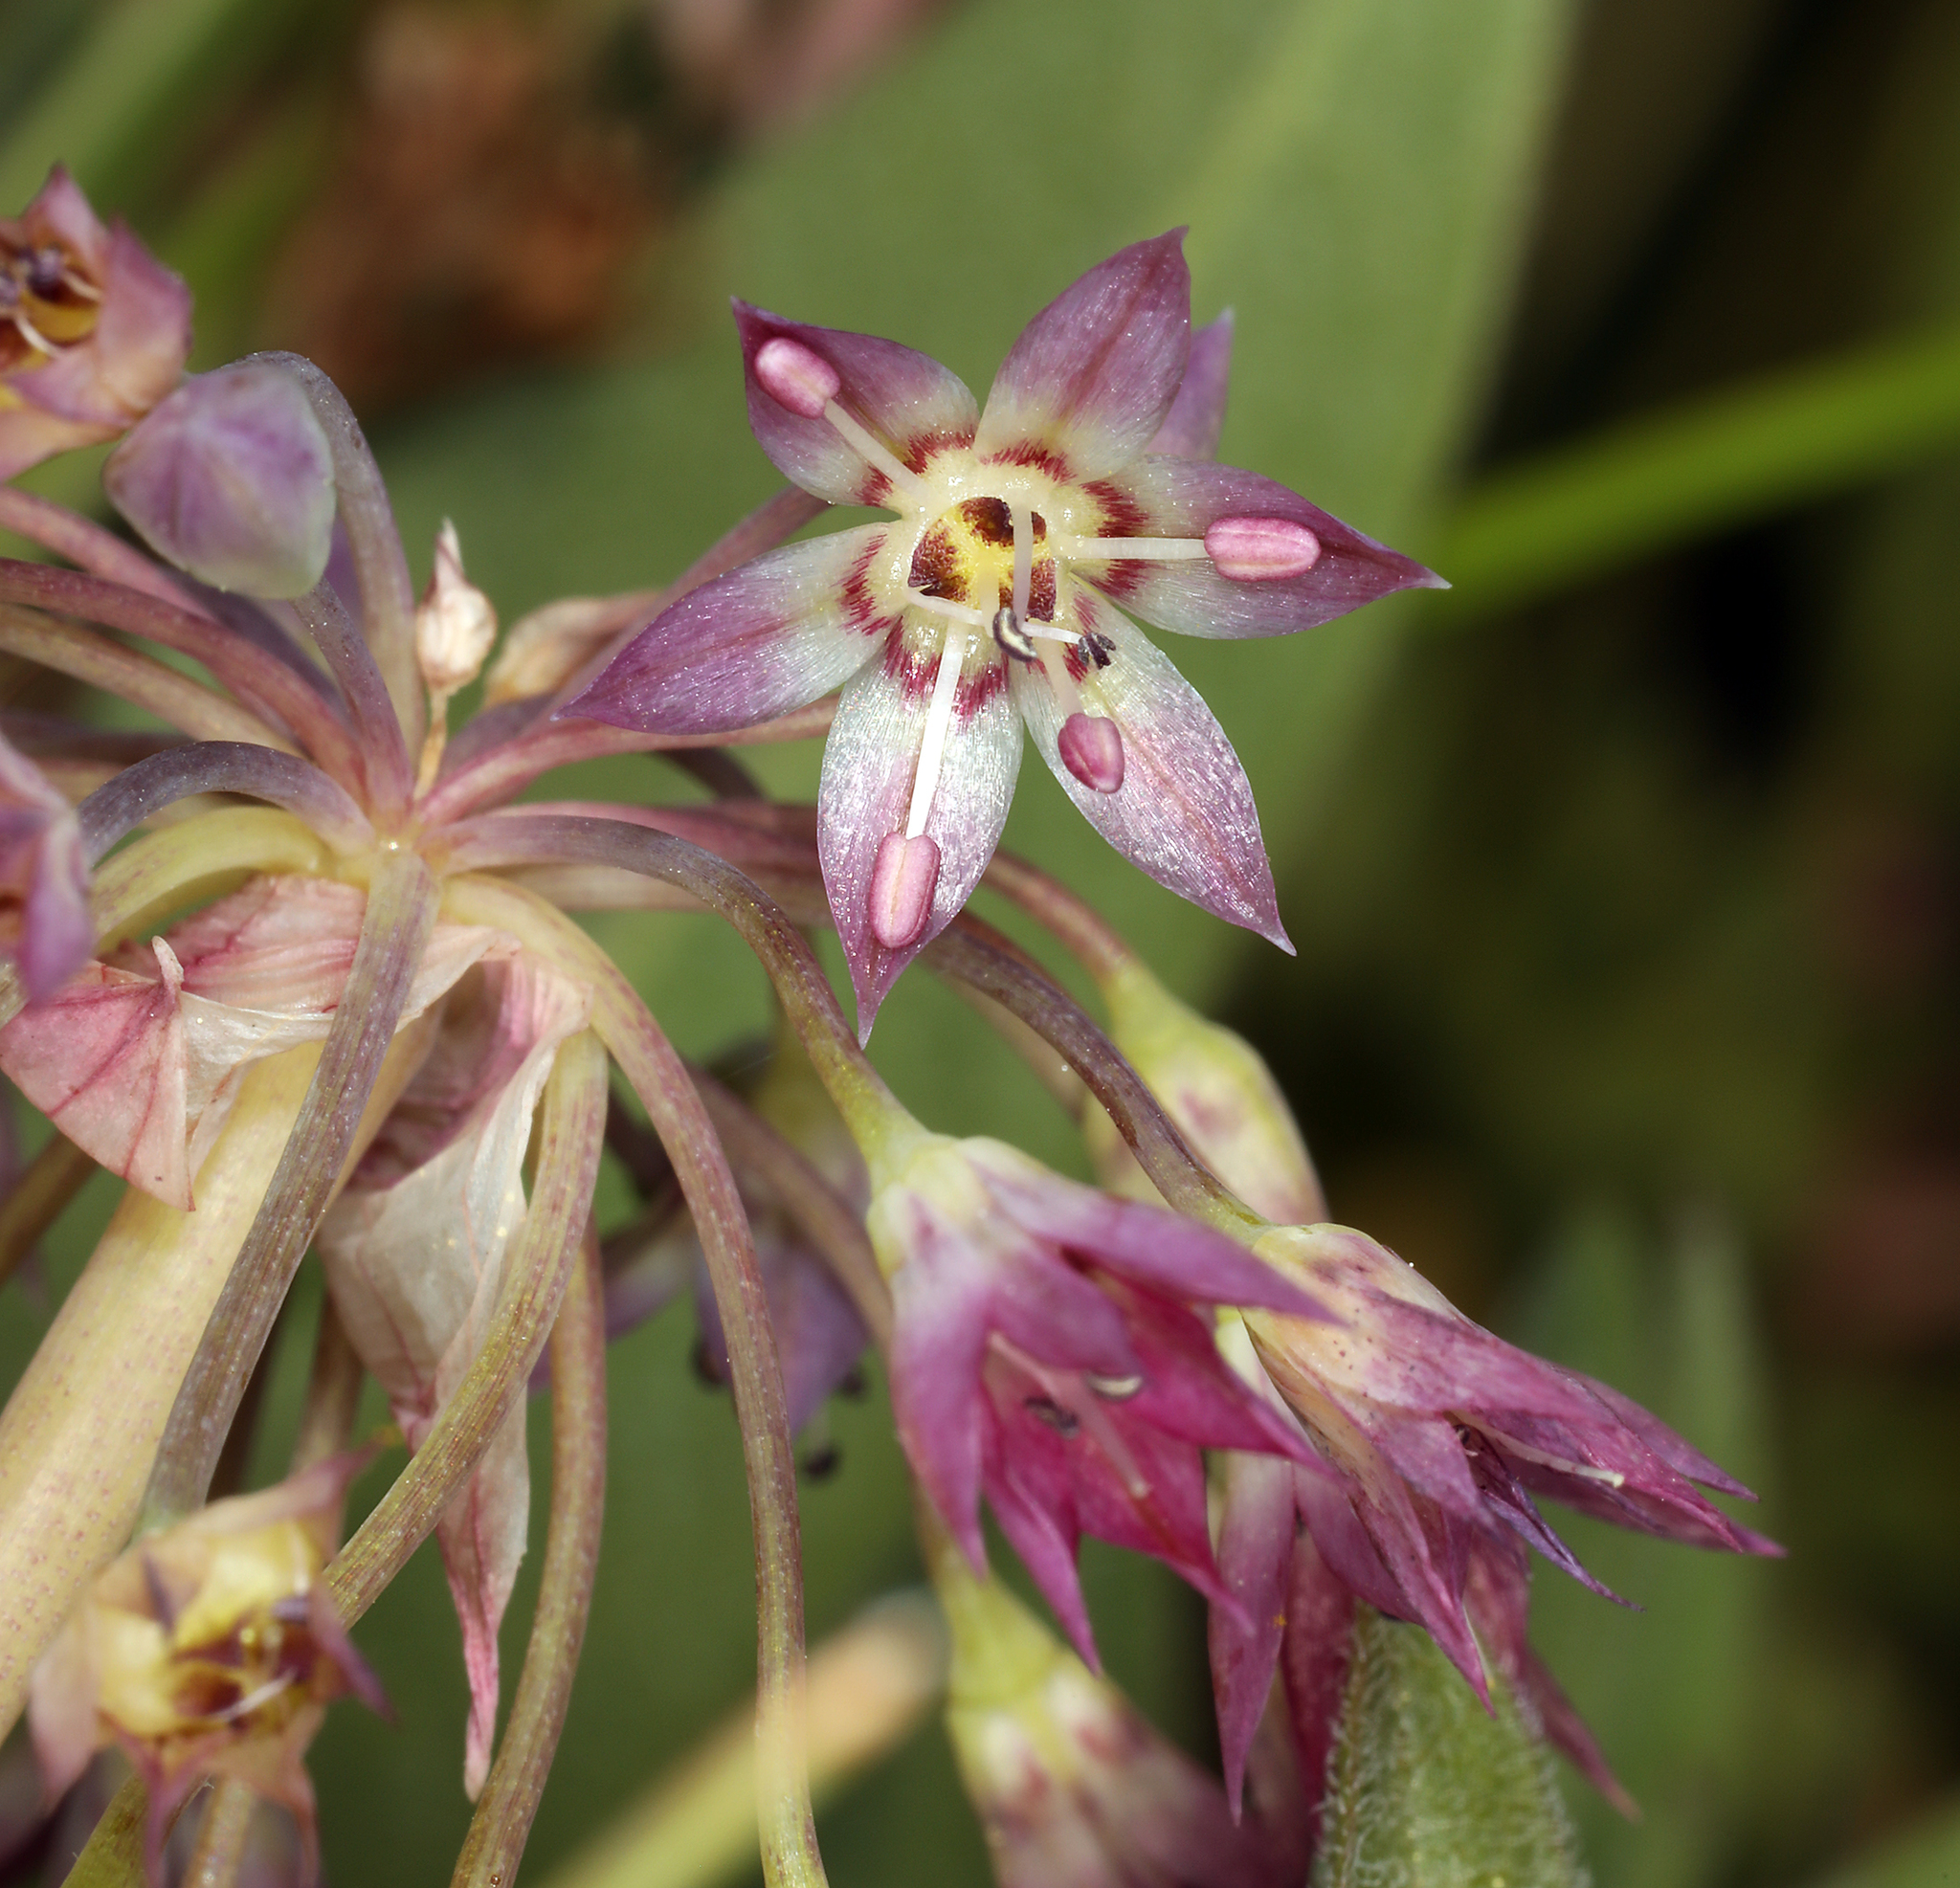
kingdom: Plantae
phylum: Tracheophyta
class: Liliopsida
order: Asparagales
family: Amaryllidaceae
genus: Allium
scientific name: Allium campanulatum
